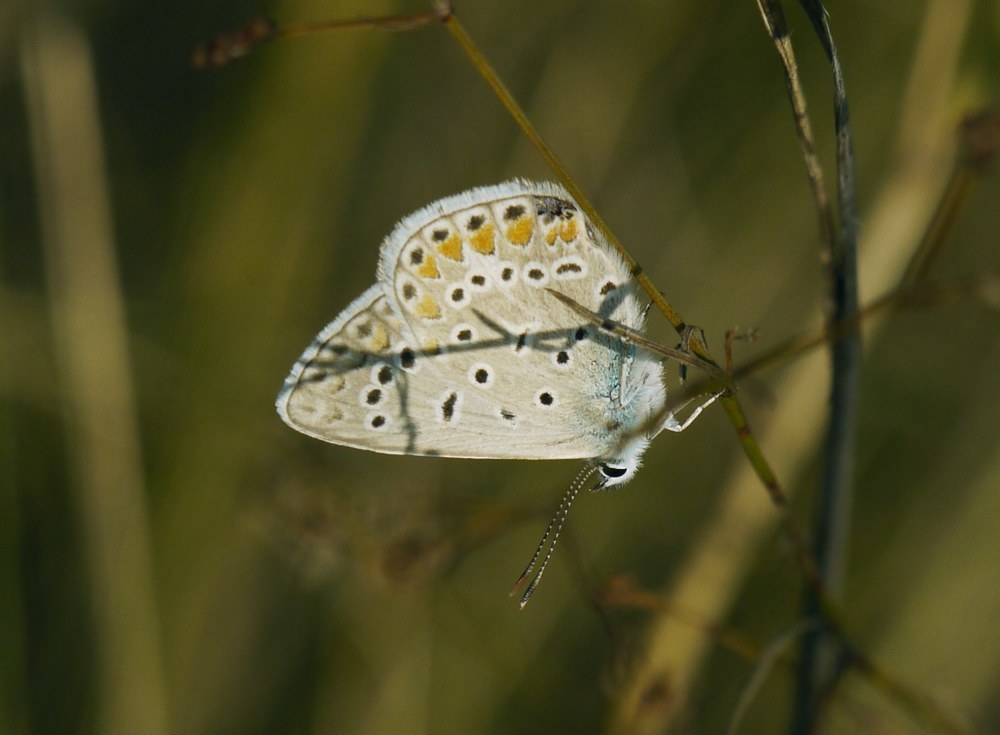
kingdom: Animalia
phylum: Arthropoda
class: Insecta
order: Lepidoptera
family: Lycaenidae
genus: Polyommatus
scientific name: Polyommatus icarus
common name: Common blue
